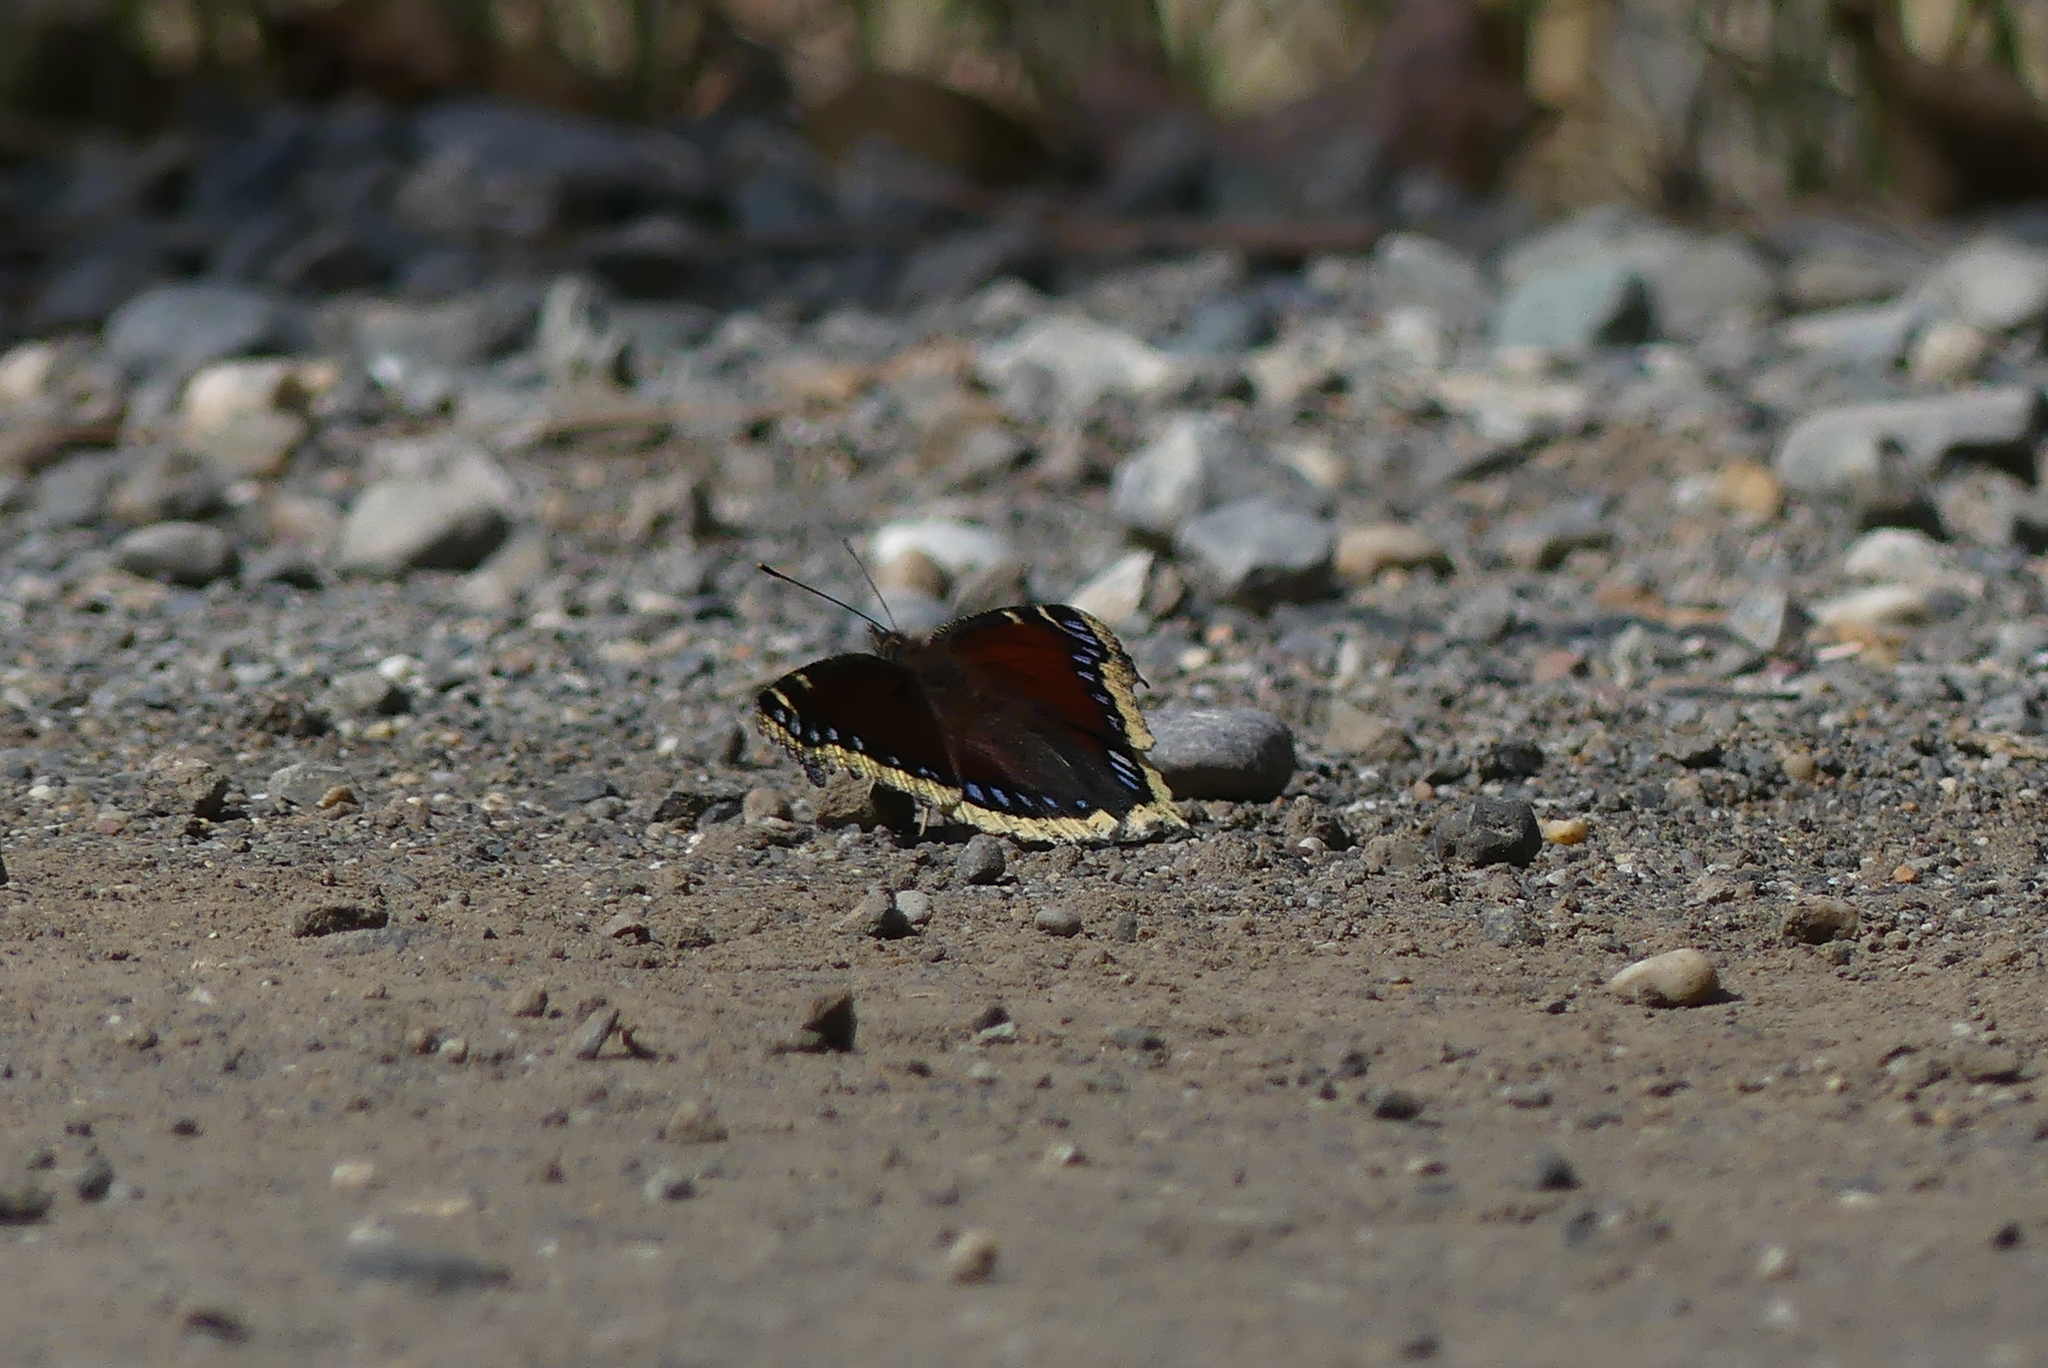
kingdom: Animalia
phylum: Arthropoda
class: Insecta
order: Lepidoptera
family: Nymphalidae
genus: Nymphalis
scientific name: Nymphalis antiopa
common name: Camberwell beauty
